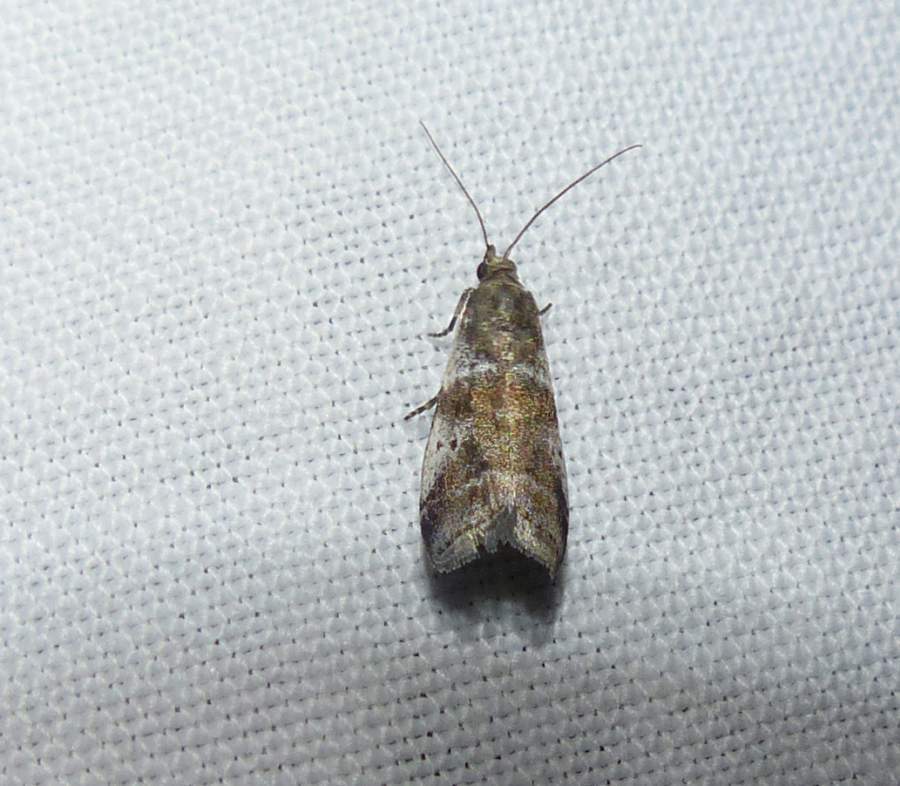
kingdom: Animalia
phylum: Arthropoda
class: Insecta
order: Lepidoptera
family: Pyralidae
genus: Acrobasis
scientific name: Acrobasis indigenella
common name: Leaf crumpler moth
